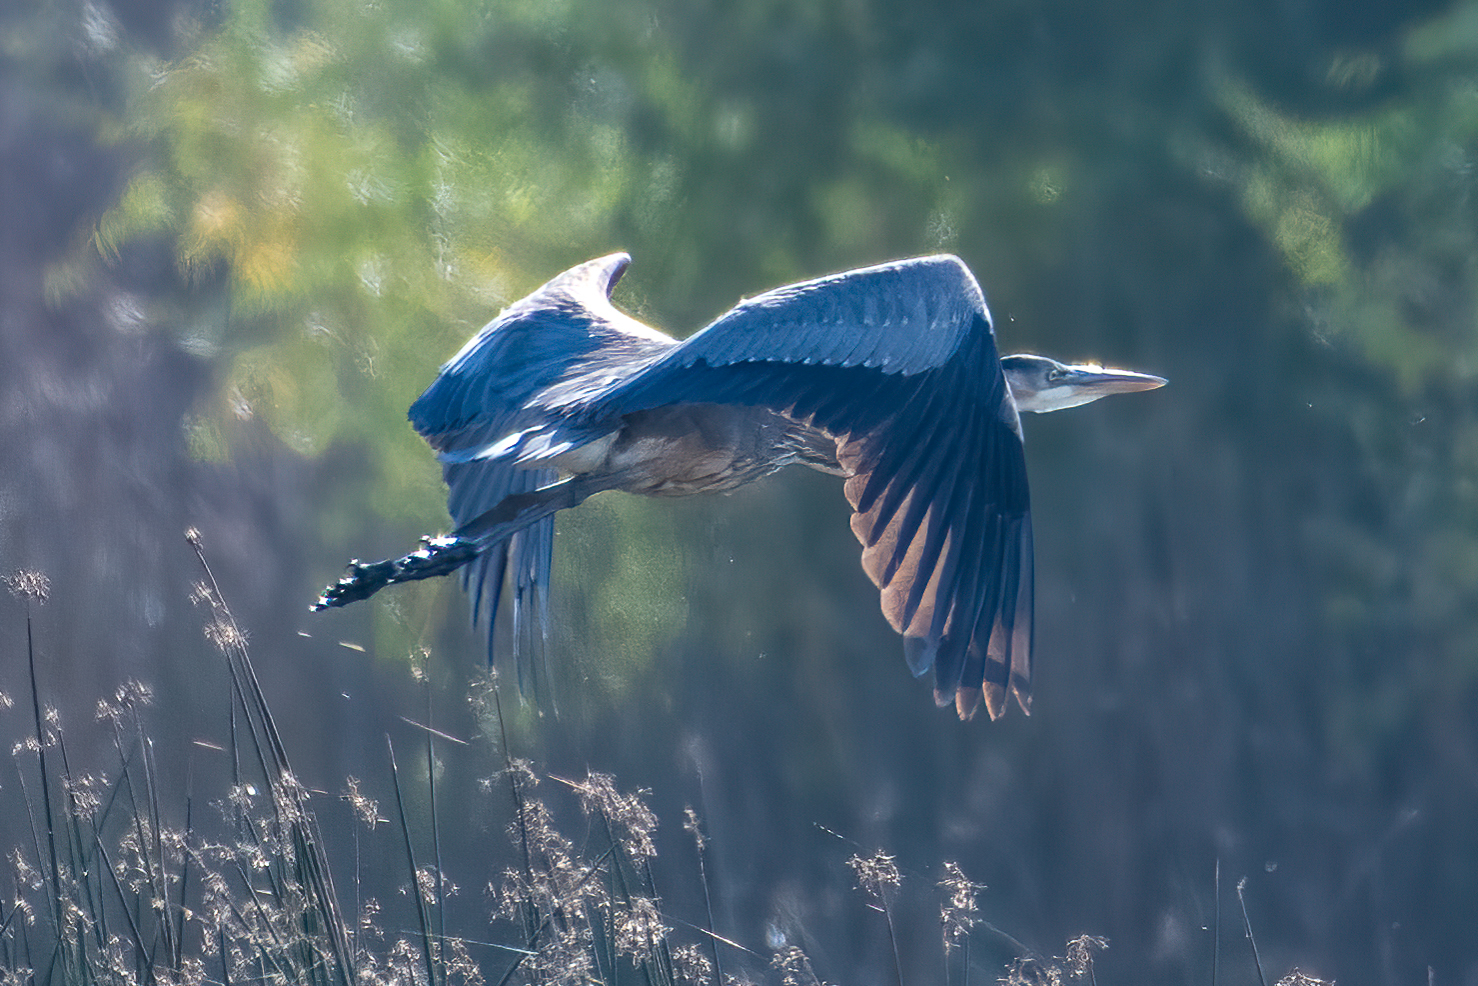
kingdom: Animalia
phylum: Chordata
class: Aves
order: Pelecaniformes
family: Ardeidae
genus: Ardea
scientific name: Ardea herodias
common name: Great blue heron
